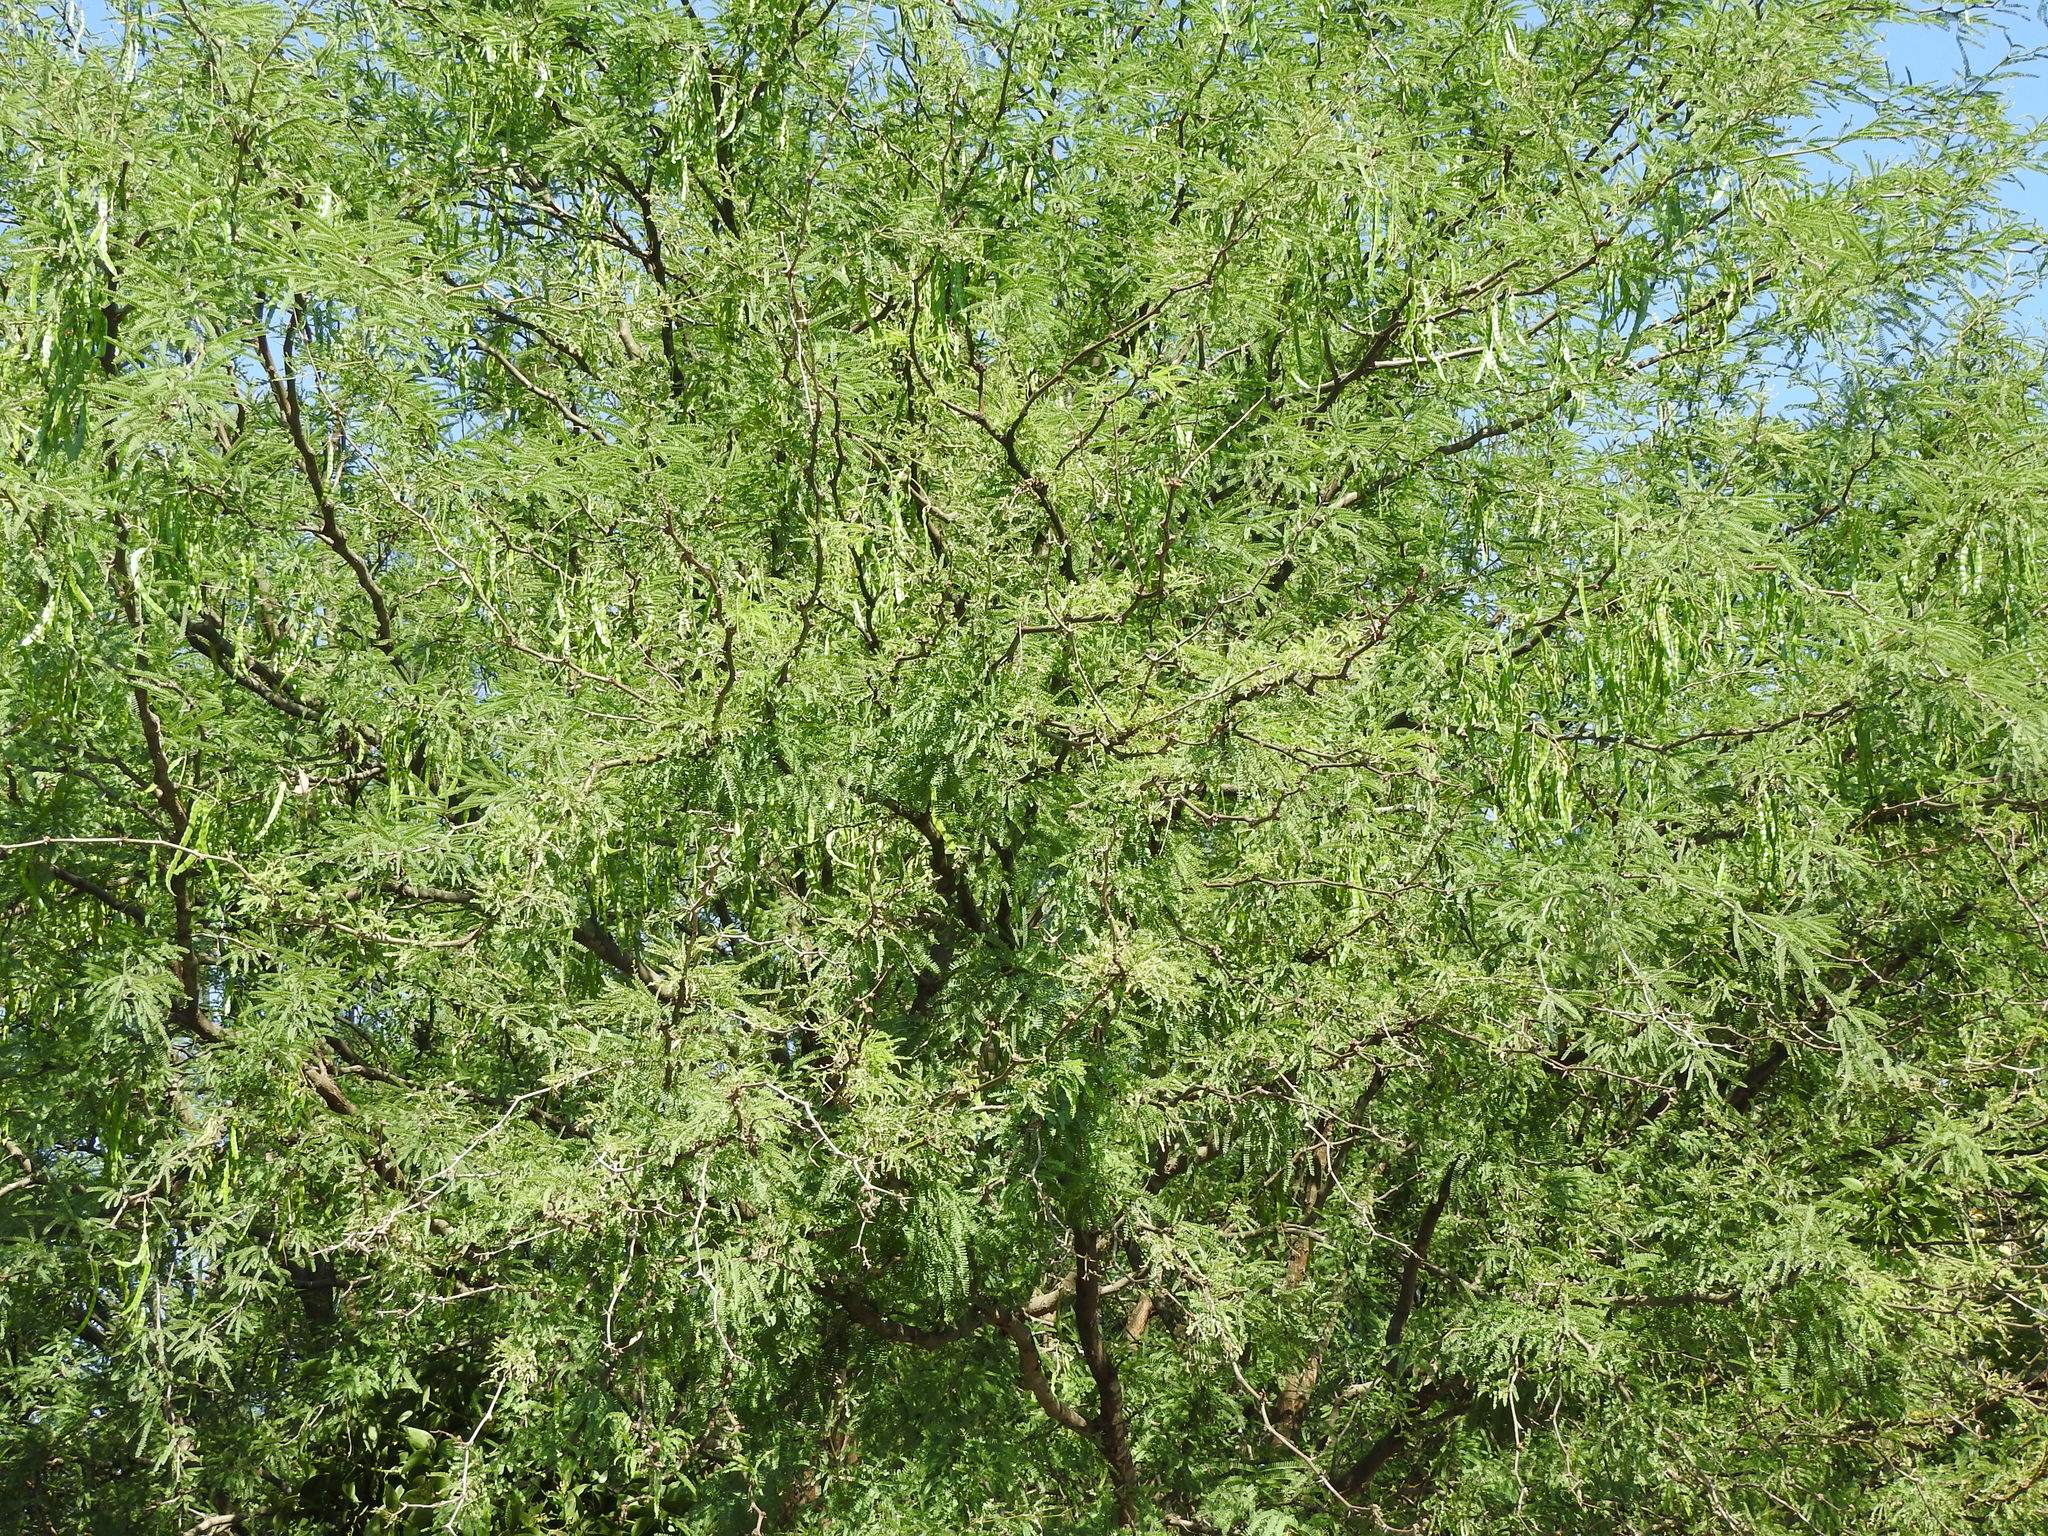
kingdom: Plantae
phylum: Tracheophyta
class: Magnoliopsida
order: Fabales
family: Fabaceae
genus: Prosopis
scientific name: Prosopis laevigata
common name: Smooth mesquite
